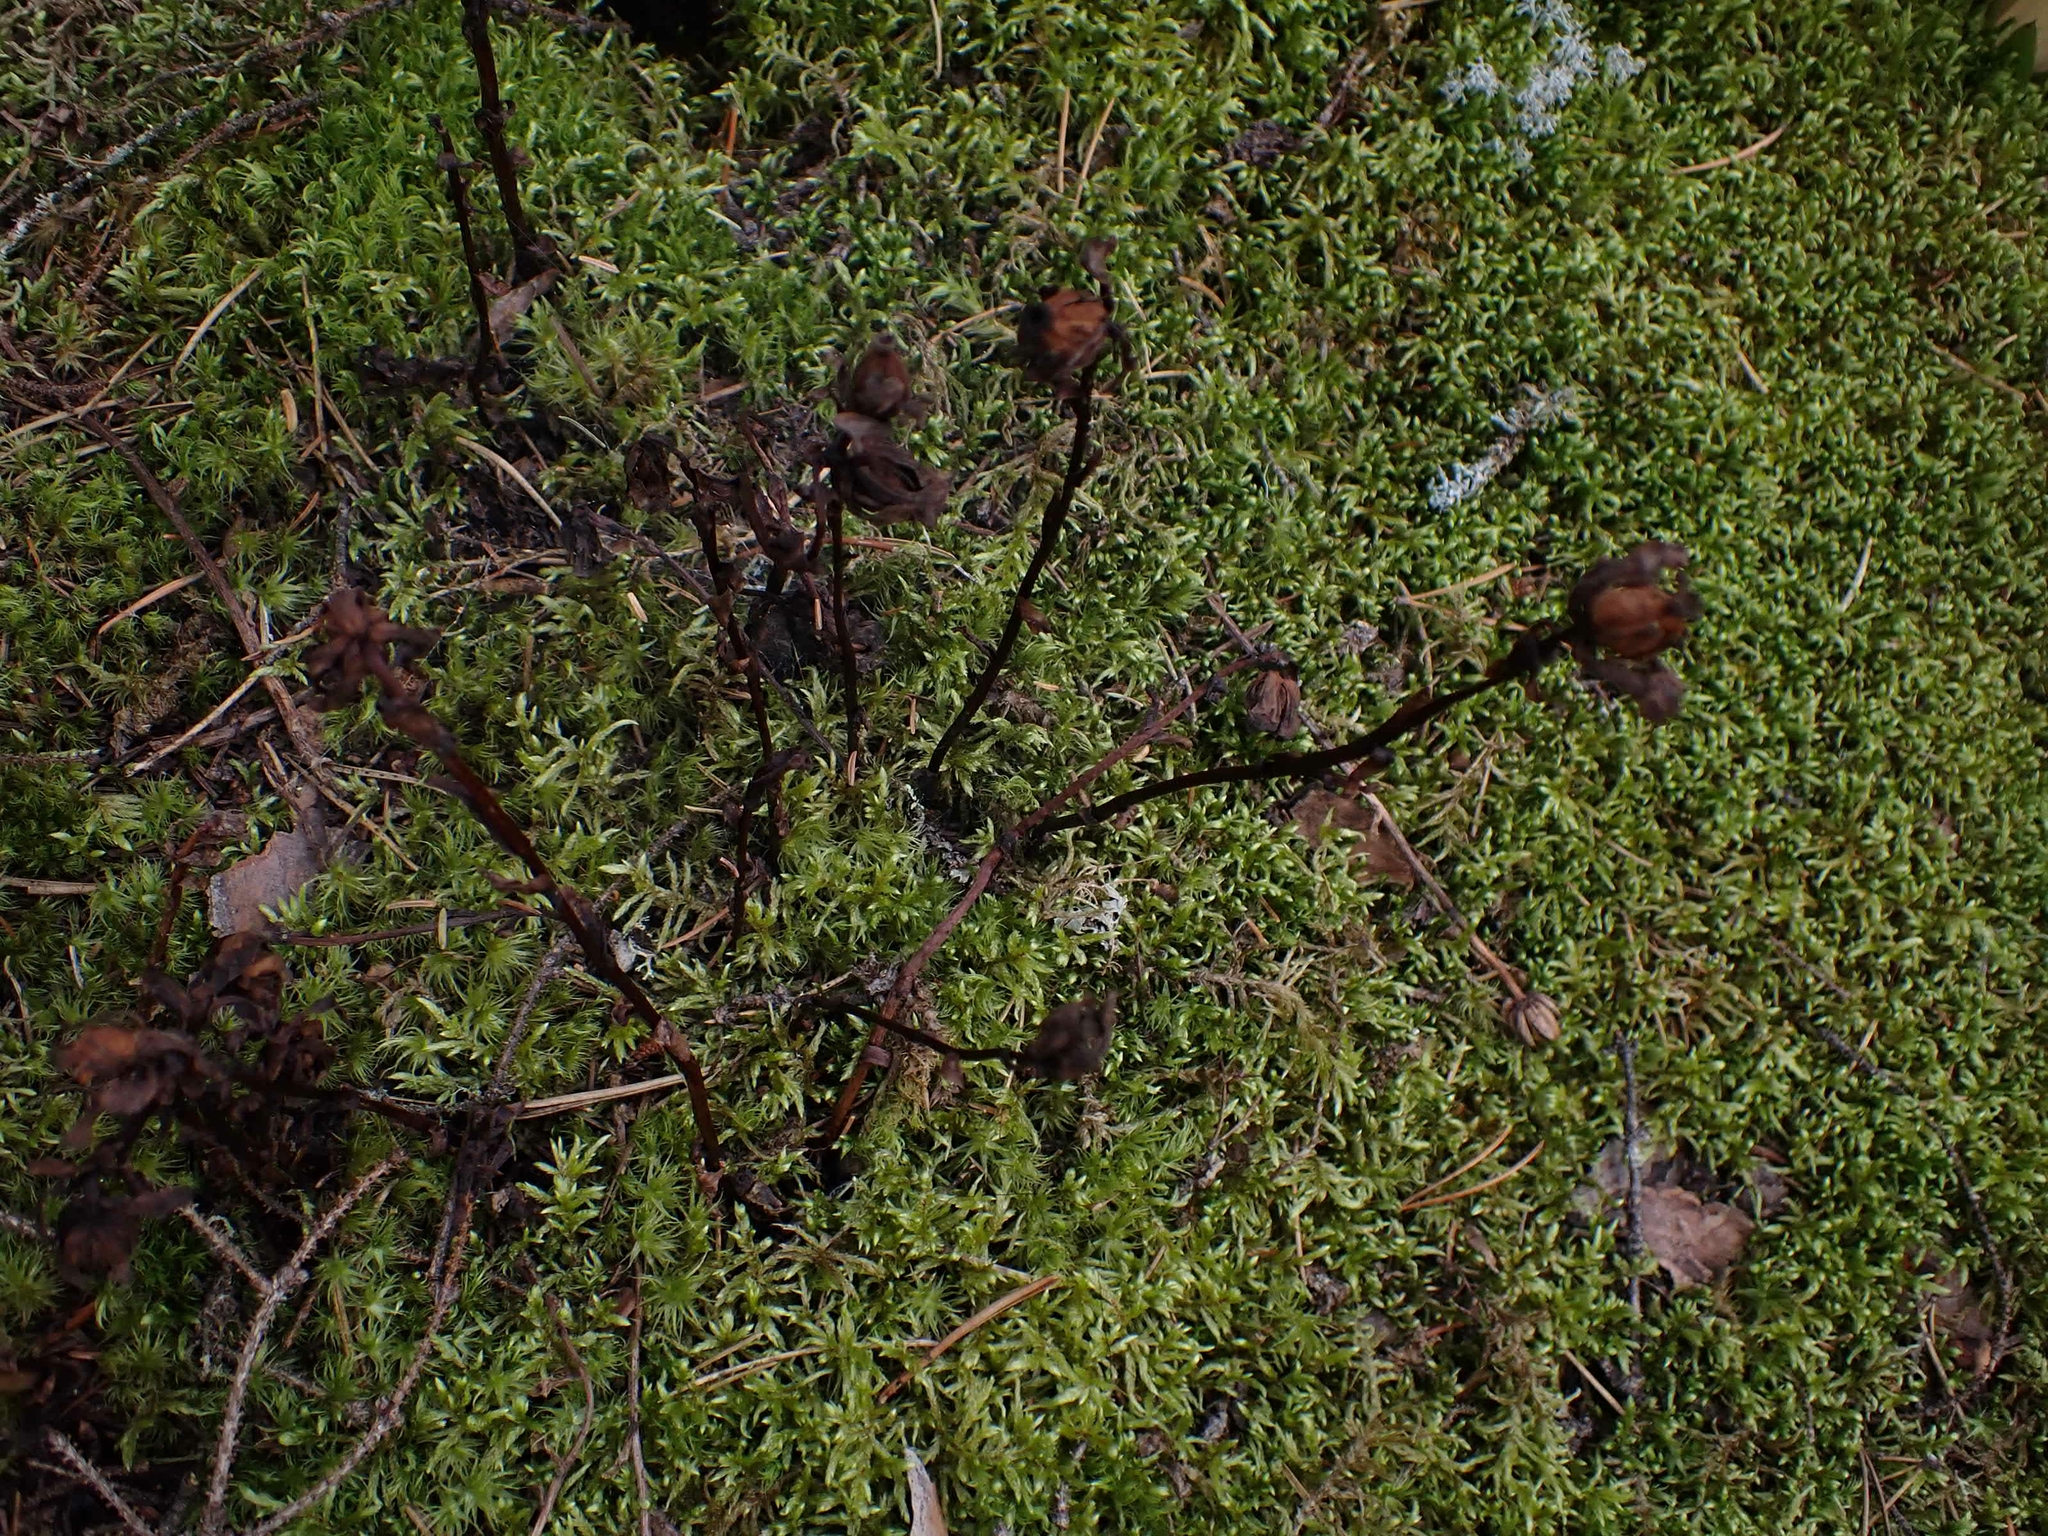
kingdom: Plantae
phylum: Tracheophyta
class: Magnoliopsida
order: Ericales
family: Ericaceae
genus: Monotropa
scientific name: Monotropa uniflora
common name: Convulsion root
